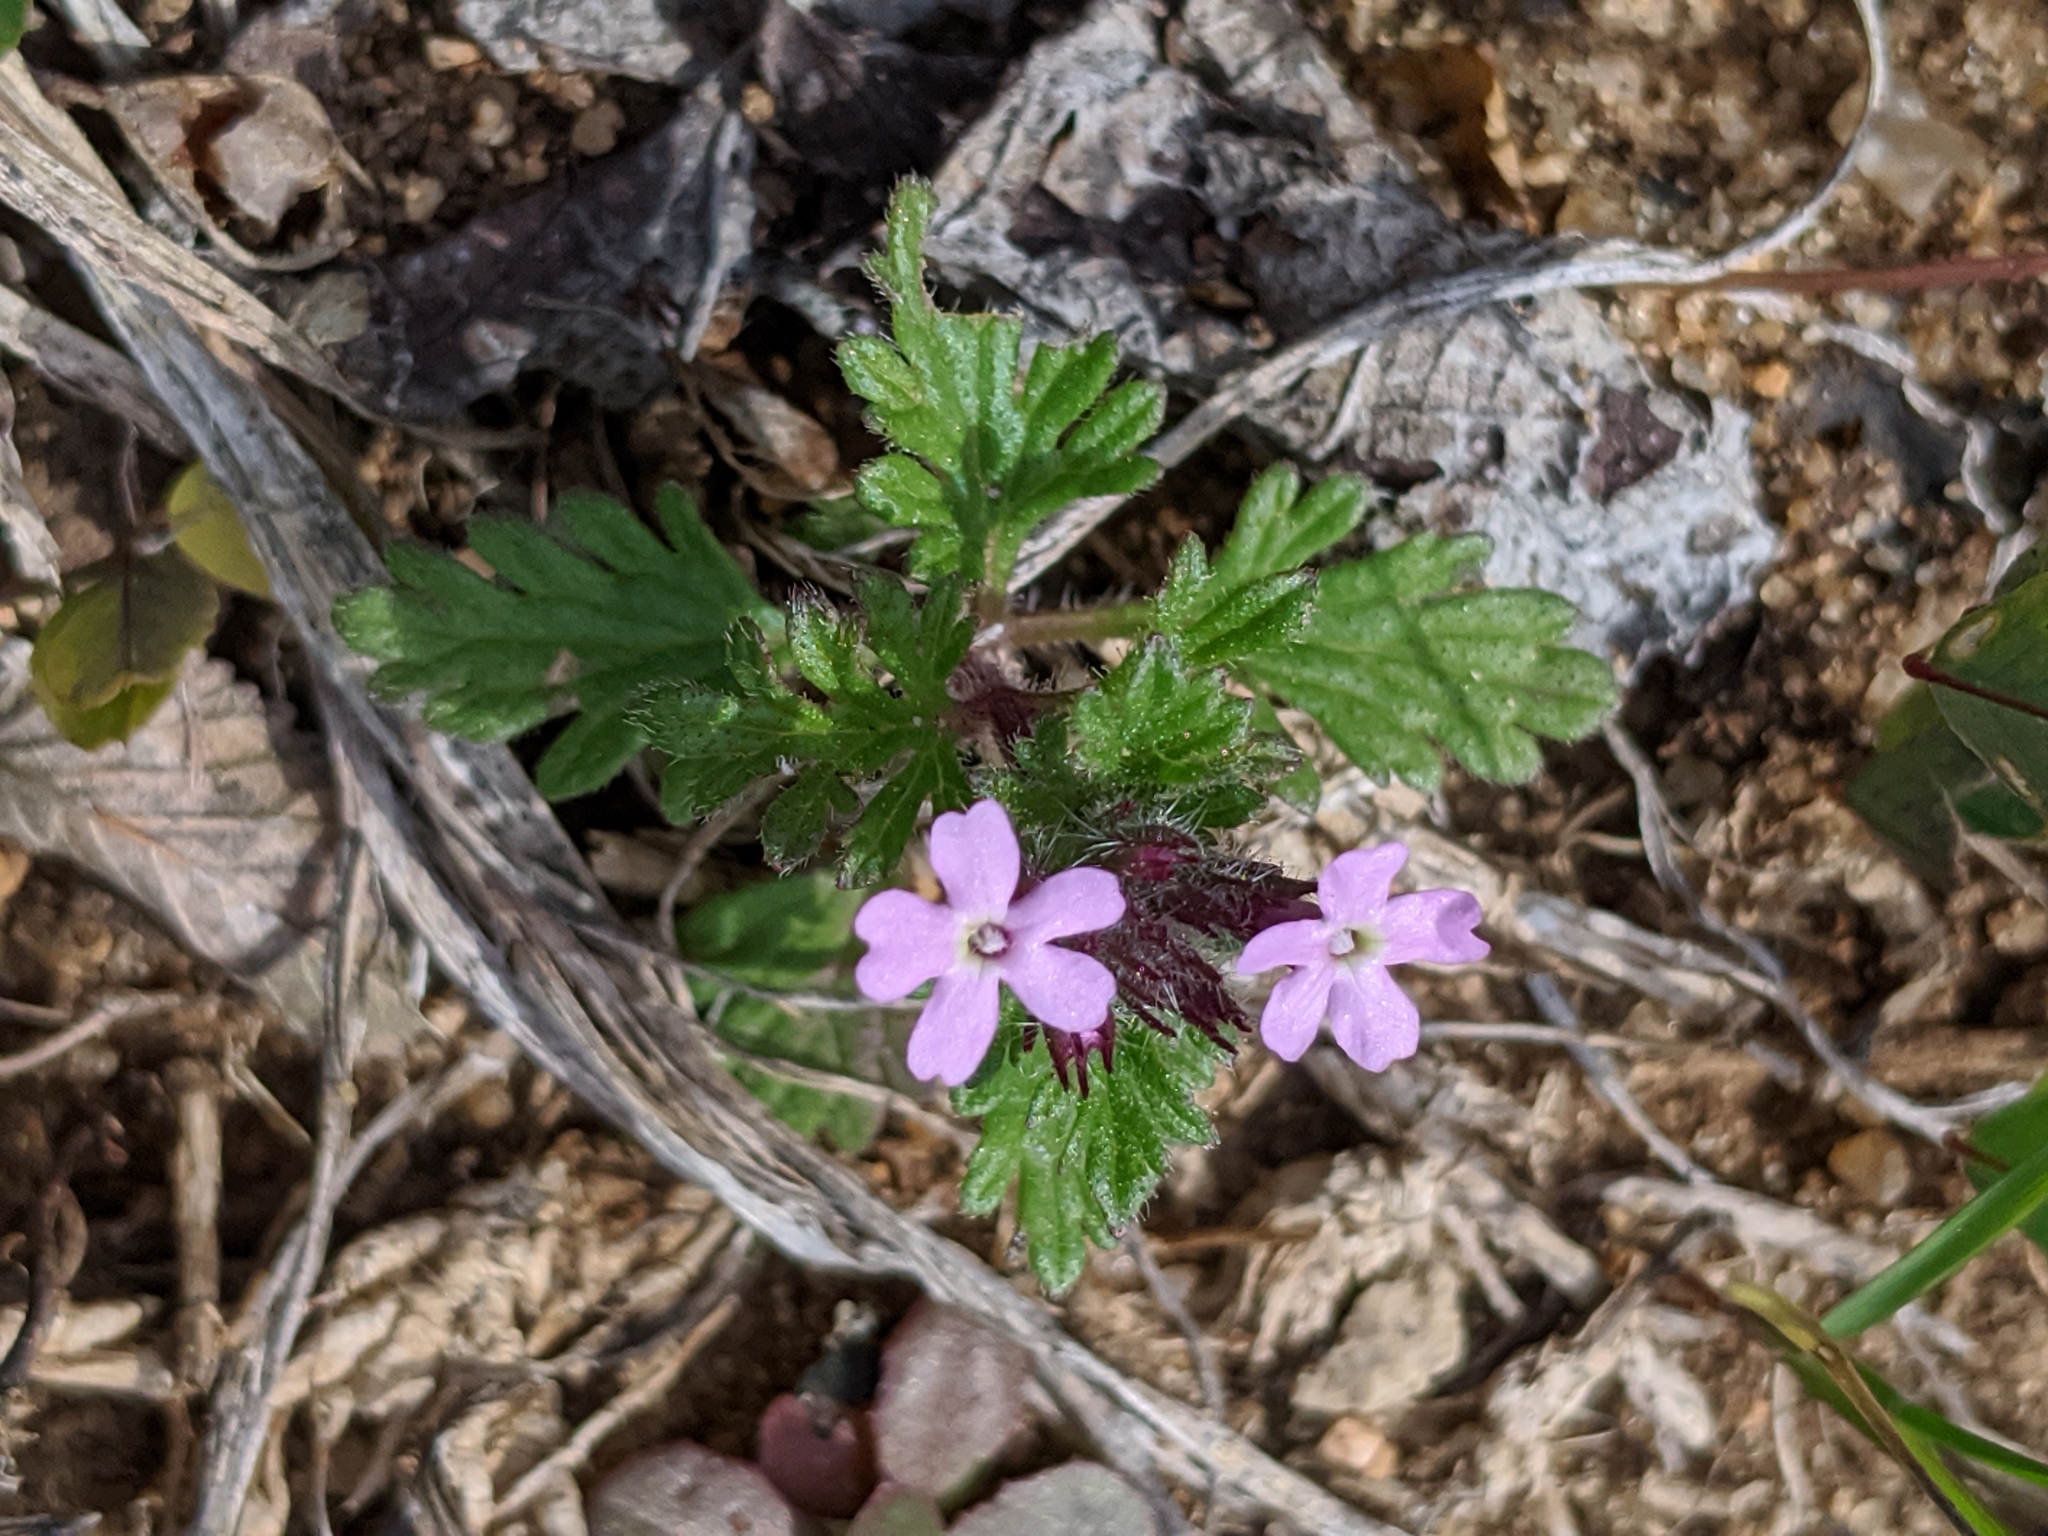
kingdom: Plantae
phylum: Tracheophyta
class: Magnoliopsida
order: Lamiales
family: Verbenaceae
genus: Verbena
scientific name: Verbena pumila
